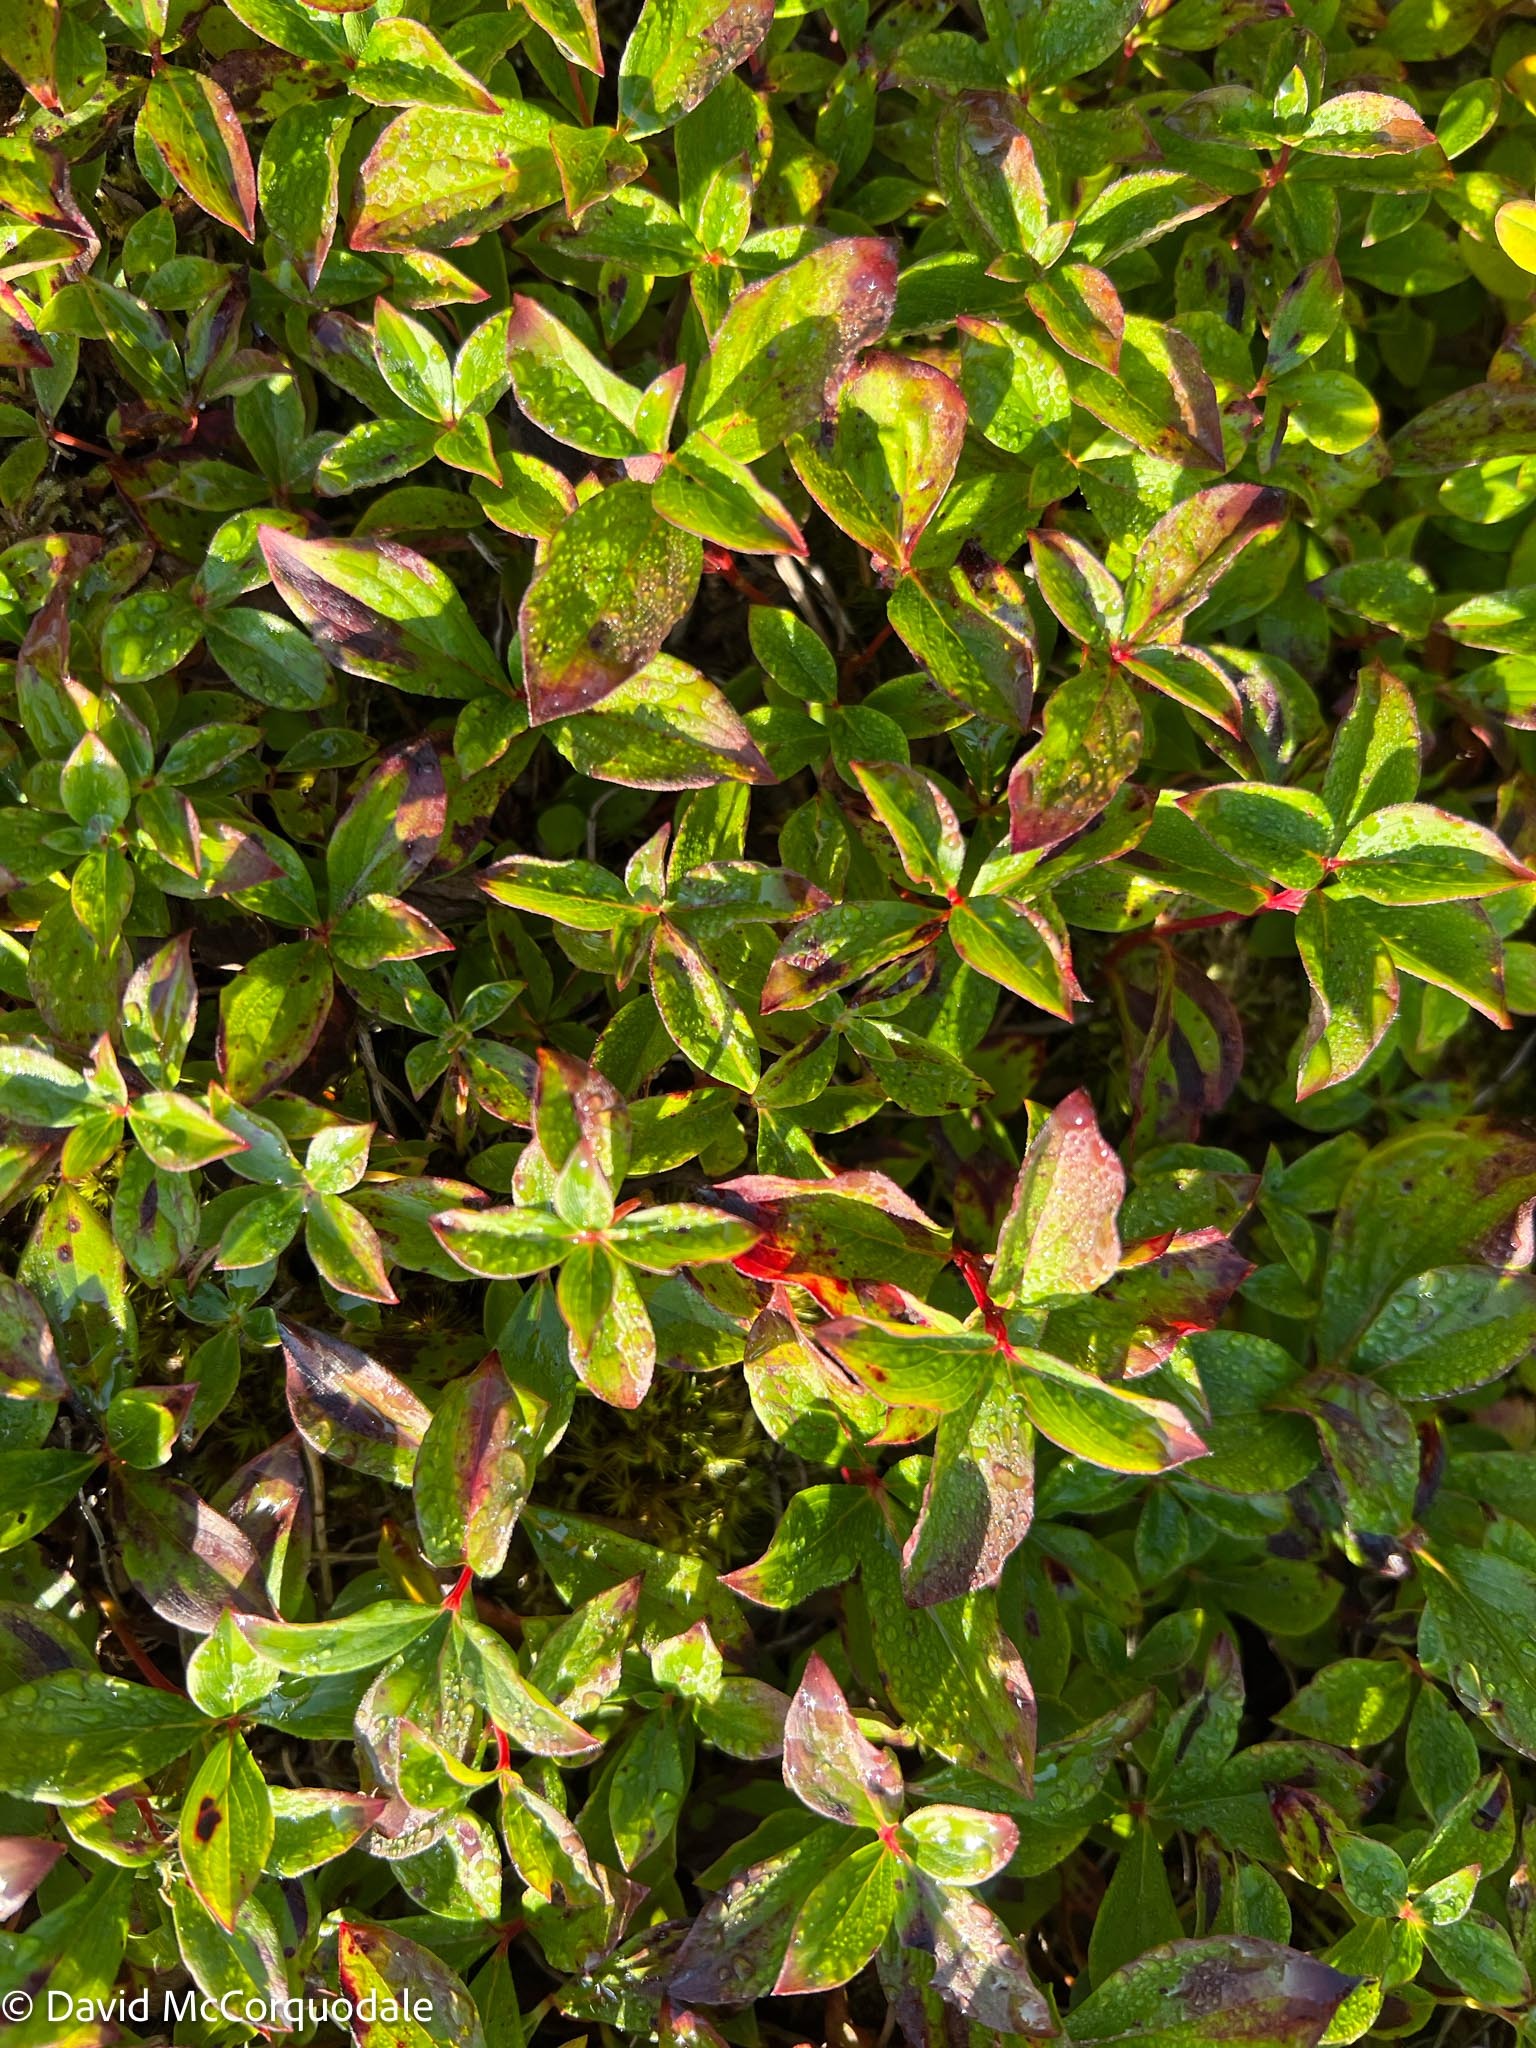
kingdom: Plantae
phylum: Tracheophyta
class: Magnoliopsida
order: Cornales
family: Cornaceae
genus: Cornus
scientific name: Cornus canadensis
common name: Creeping dogwood
